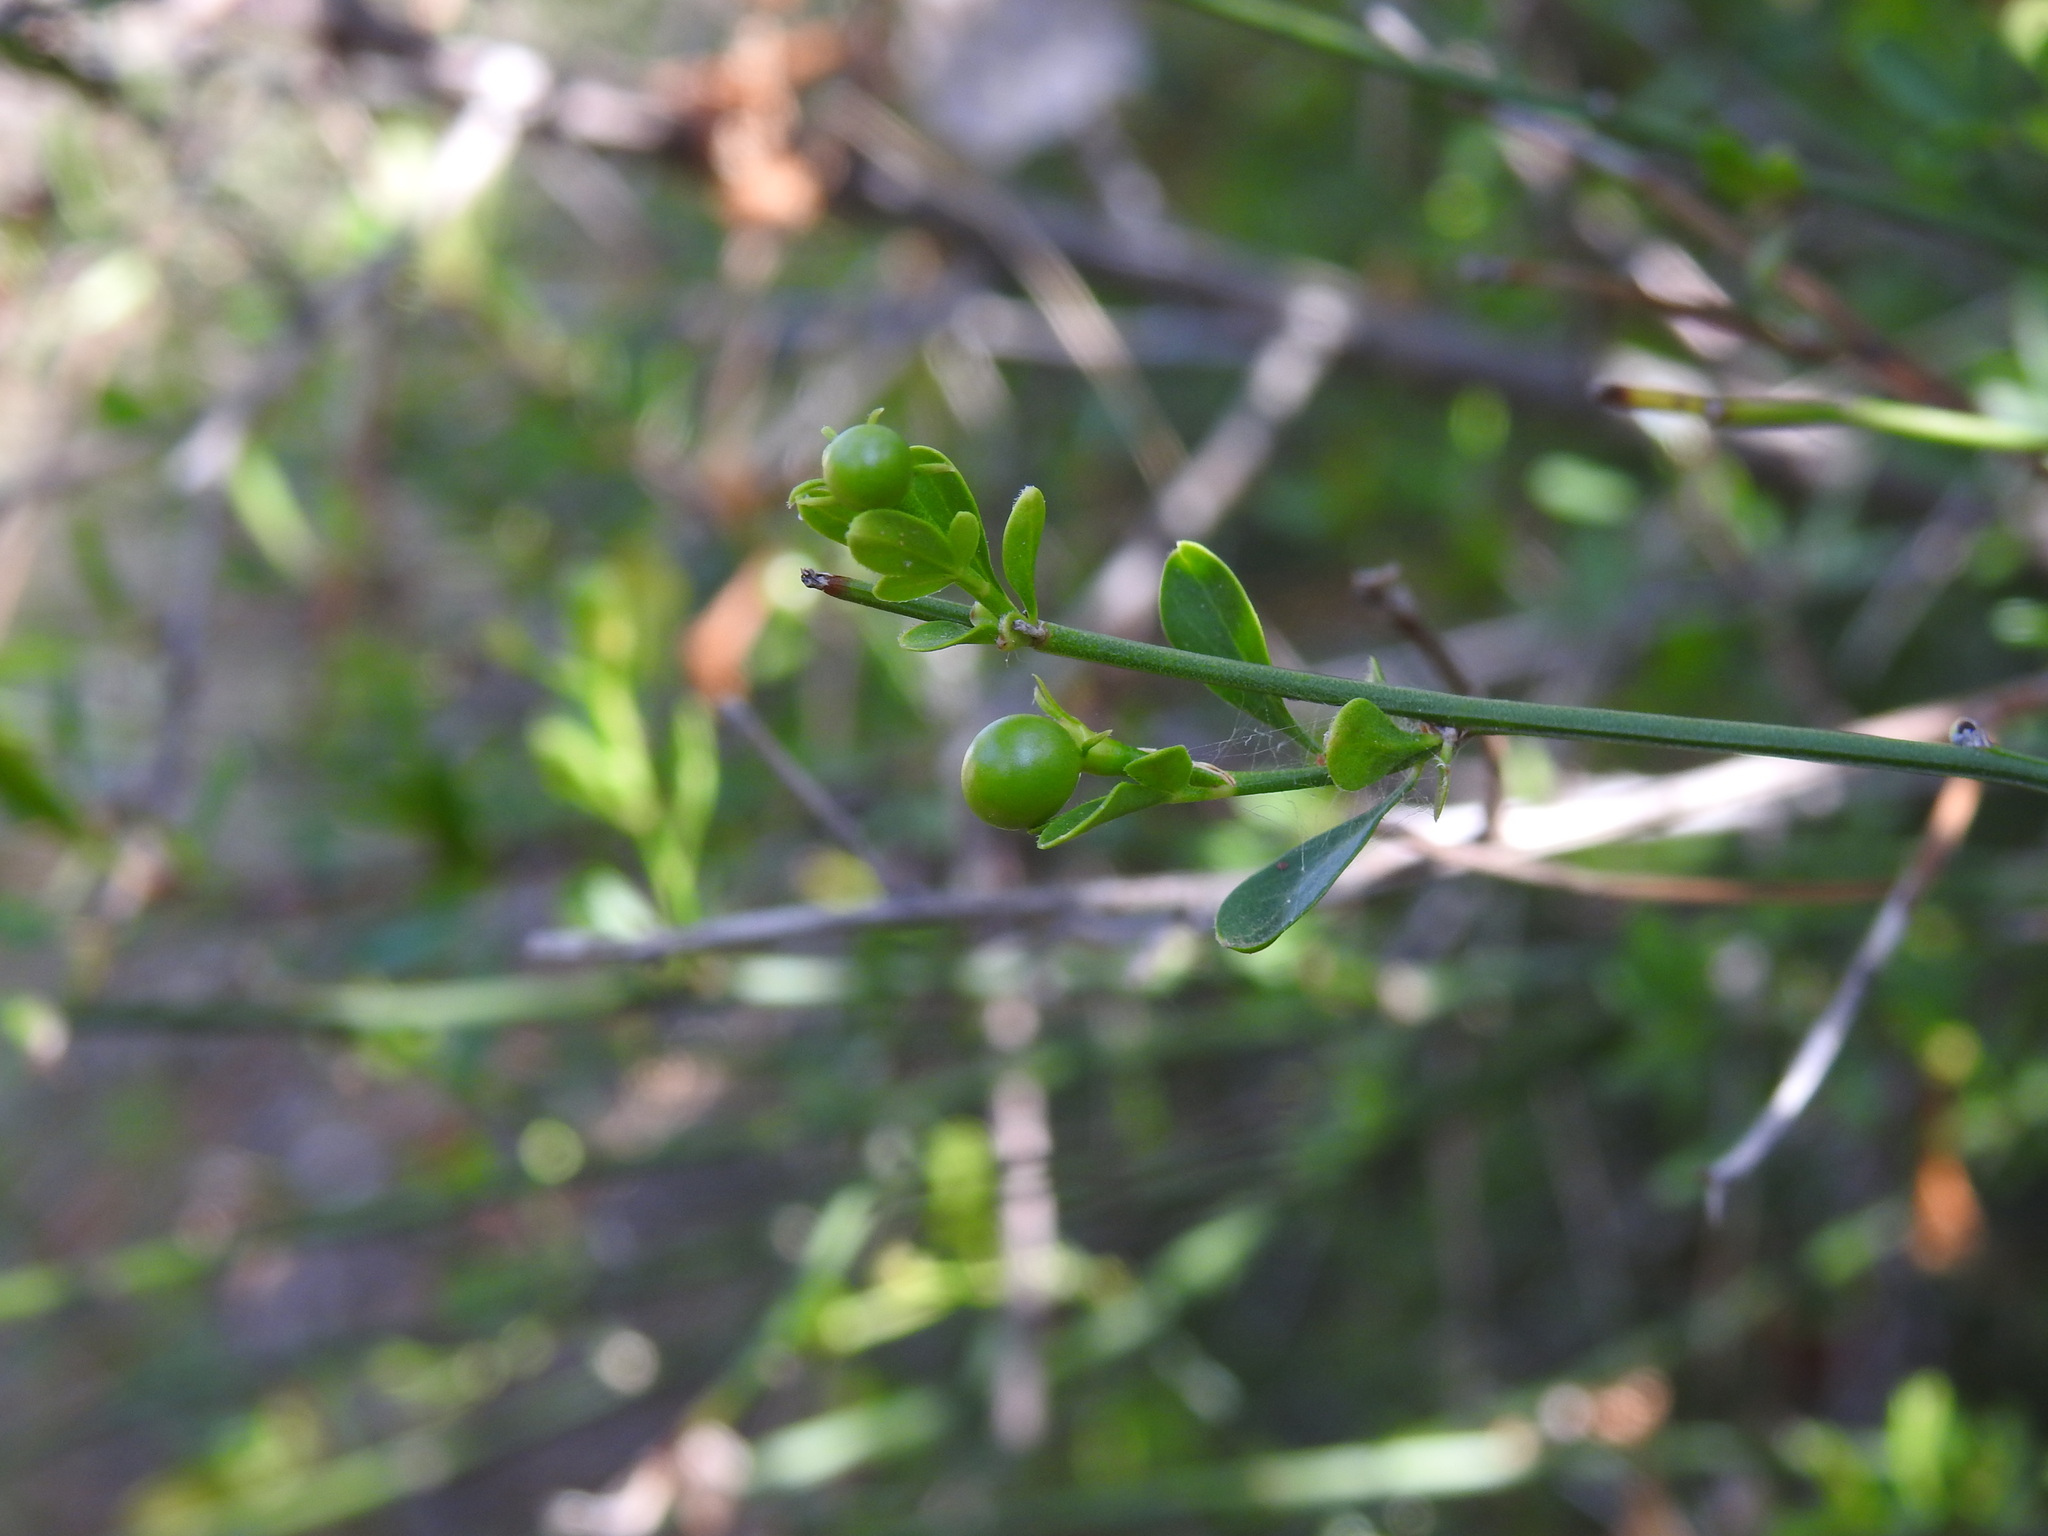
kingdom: Plantae
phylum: Tracheophyta
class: Magnoliopsida
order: Lamiales
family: Oleaceae
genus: Chrysojasminum
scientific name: Chrysojasminum fruticans
